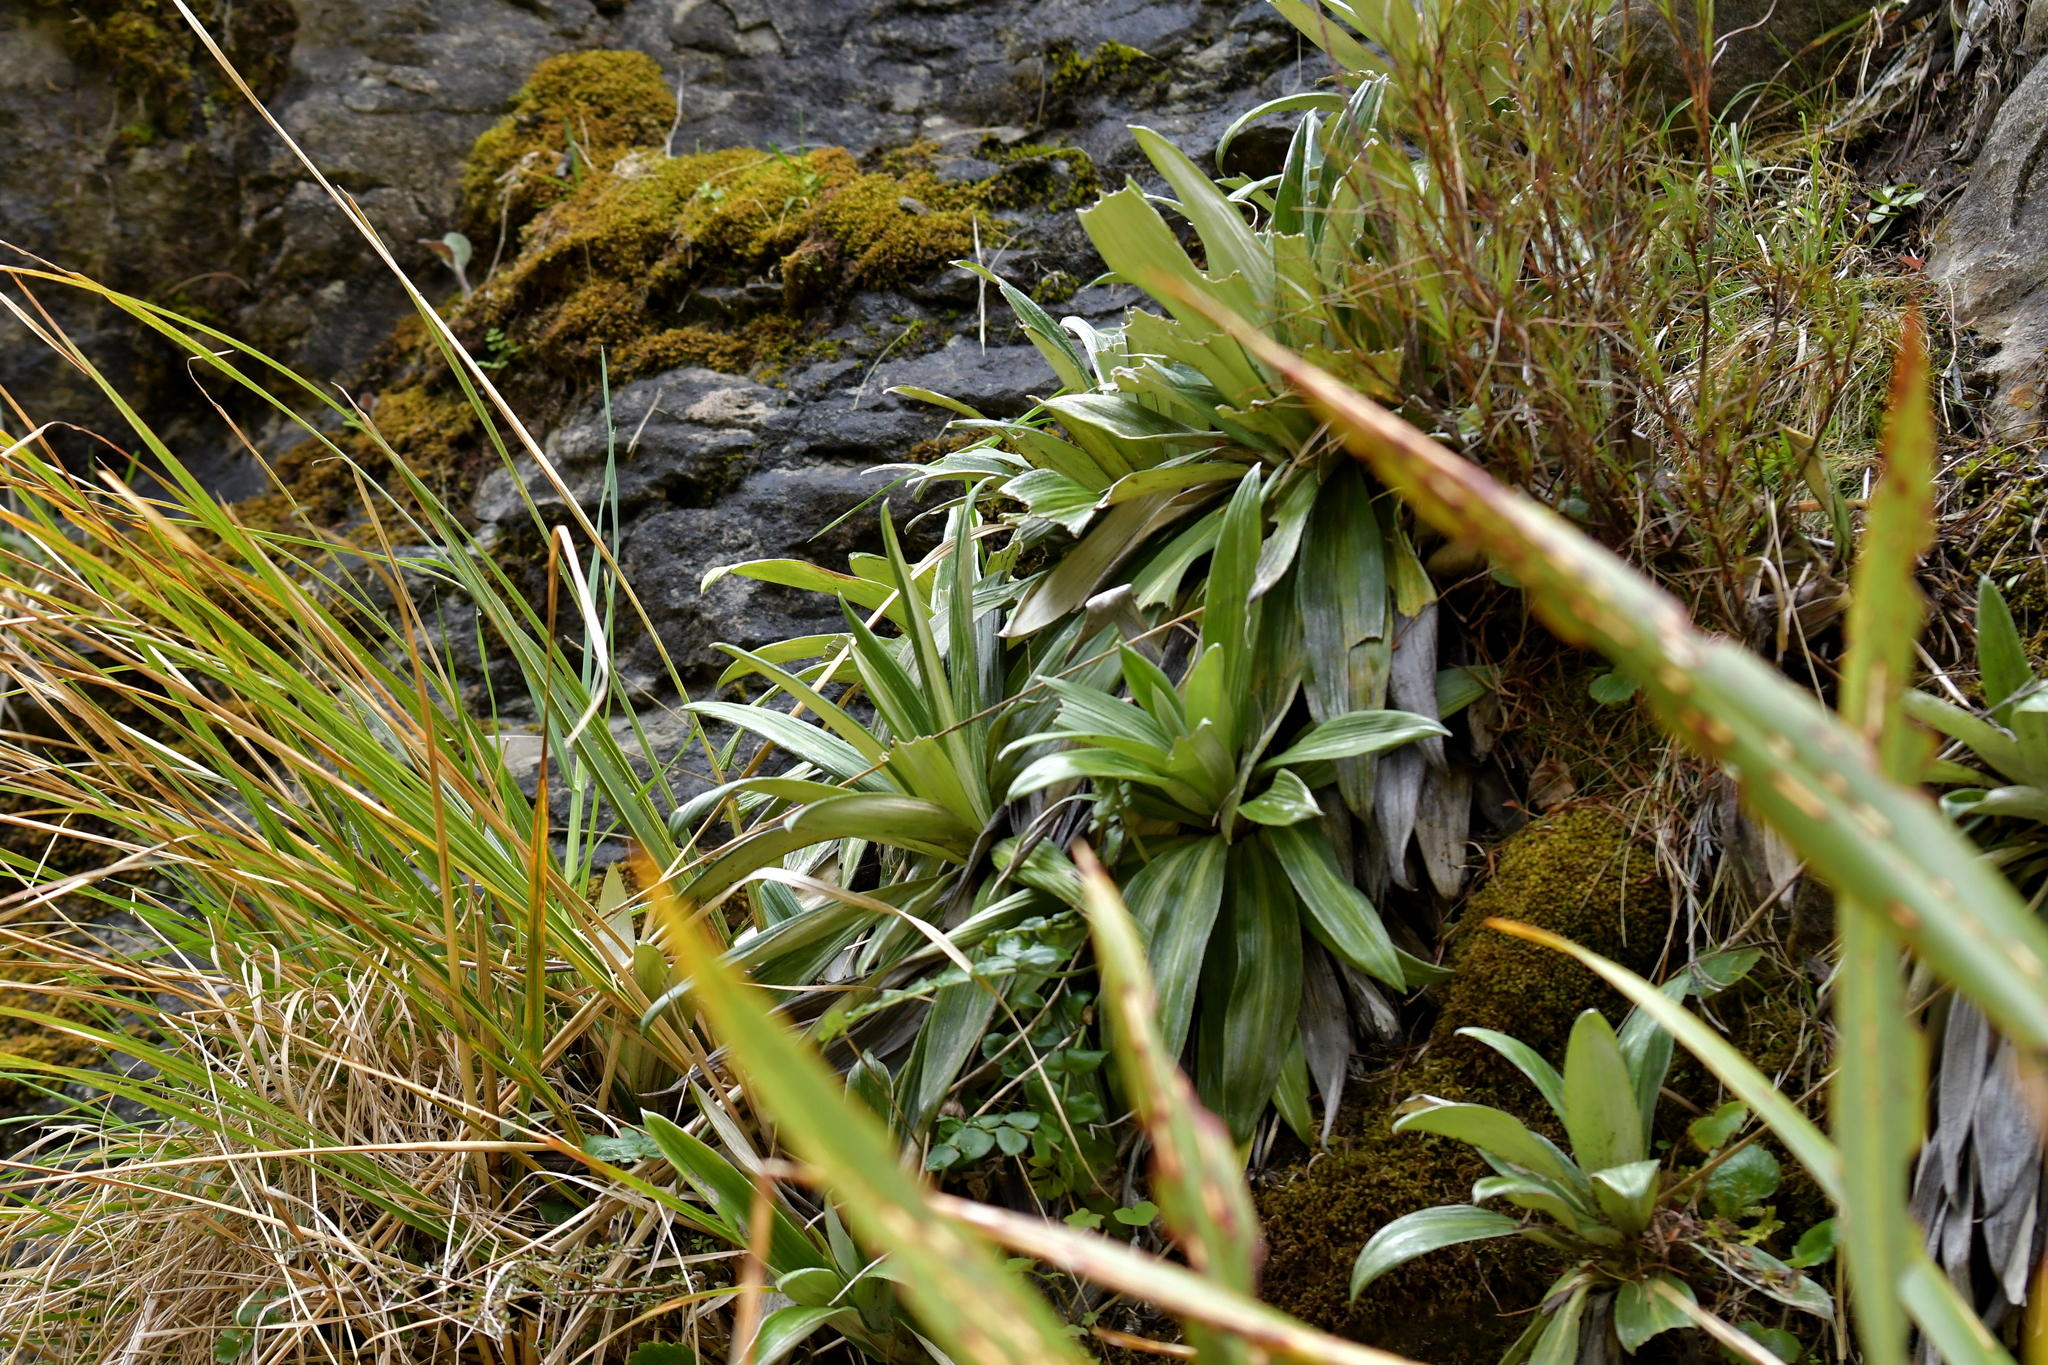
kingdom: Plantae
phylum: Tracheophyta
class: Magnoliopsida
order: Asterales
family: Asteraceae
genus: Celmisia
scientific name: Celmisia semicordata
